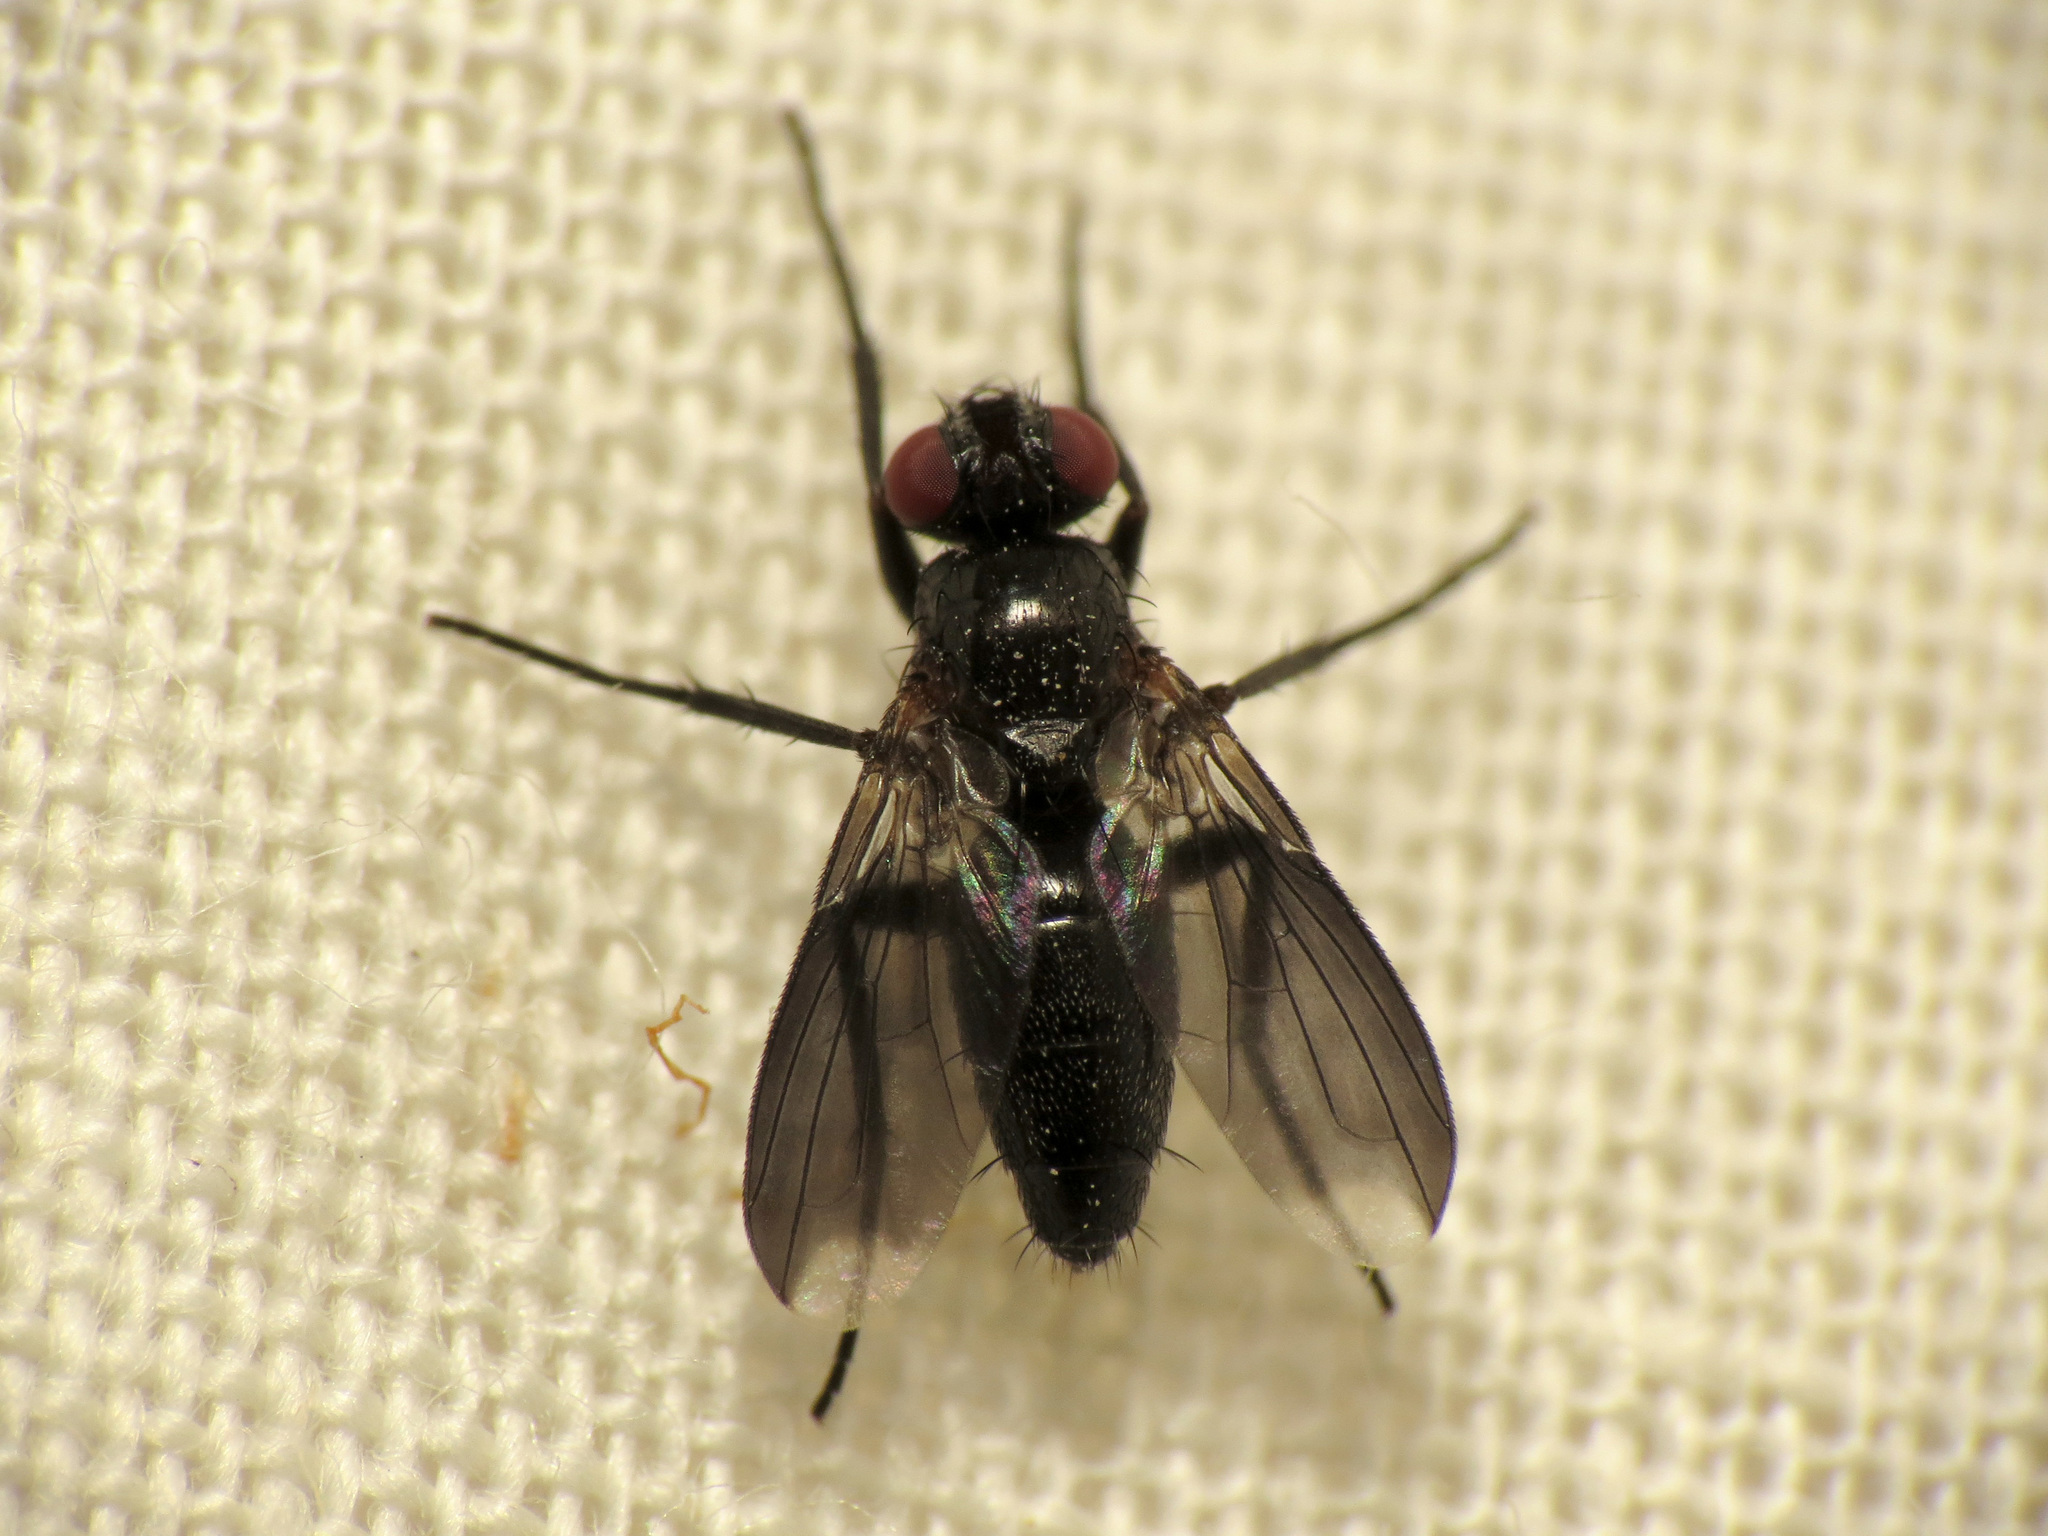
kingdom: Animalia
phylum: Arthropoda
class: Insecta
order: Diptera
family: Calliphoridae
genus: Melanophora
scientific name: Melanophora roralis
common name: Smoky-winged woodlouse-fly
